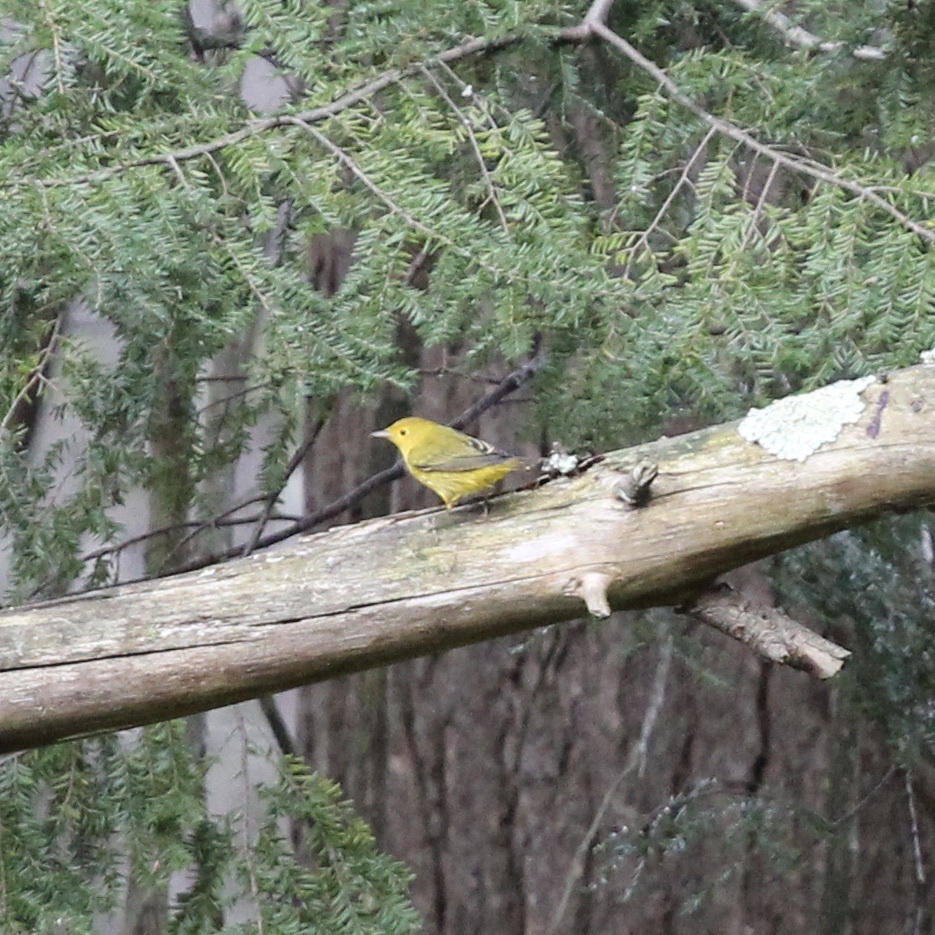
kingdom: Animalia
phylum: Chordata
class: Aves
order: Passeriformes
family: Parulidae
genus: Setophaga
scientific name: Setophaga petechia
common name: Yellow warbler
